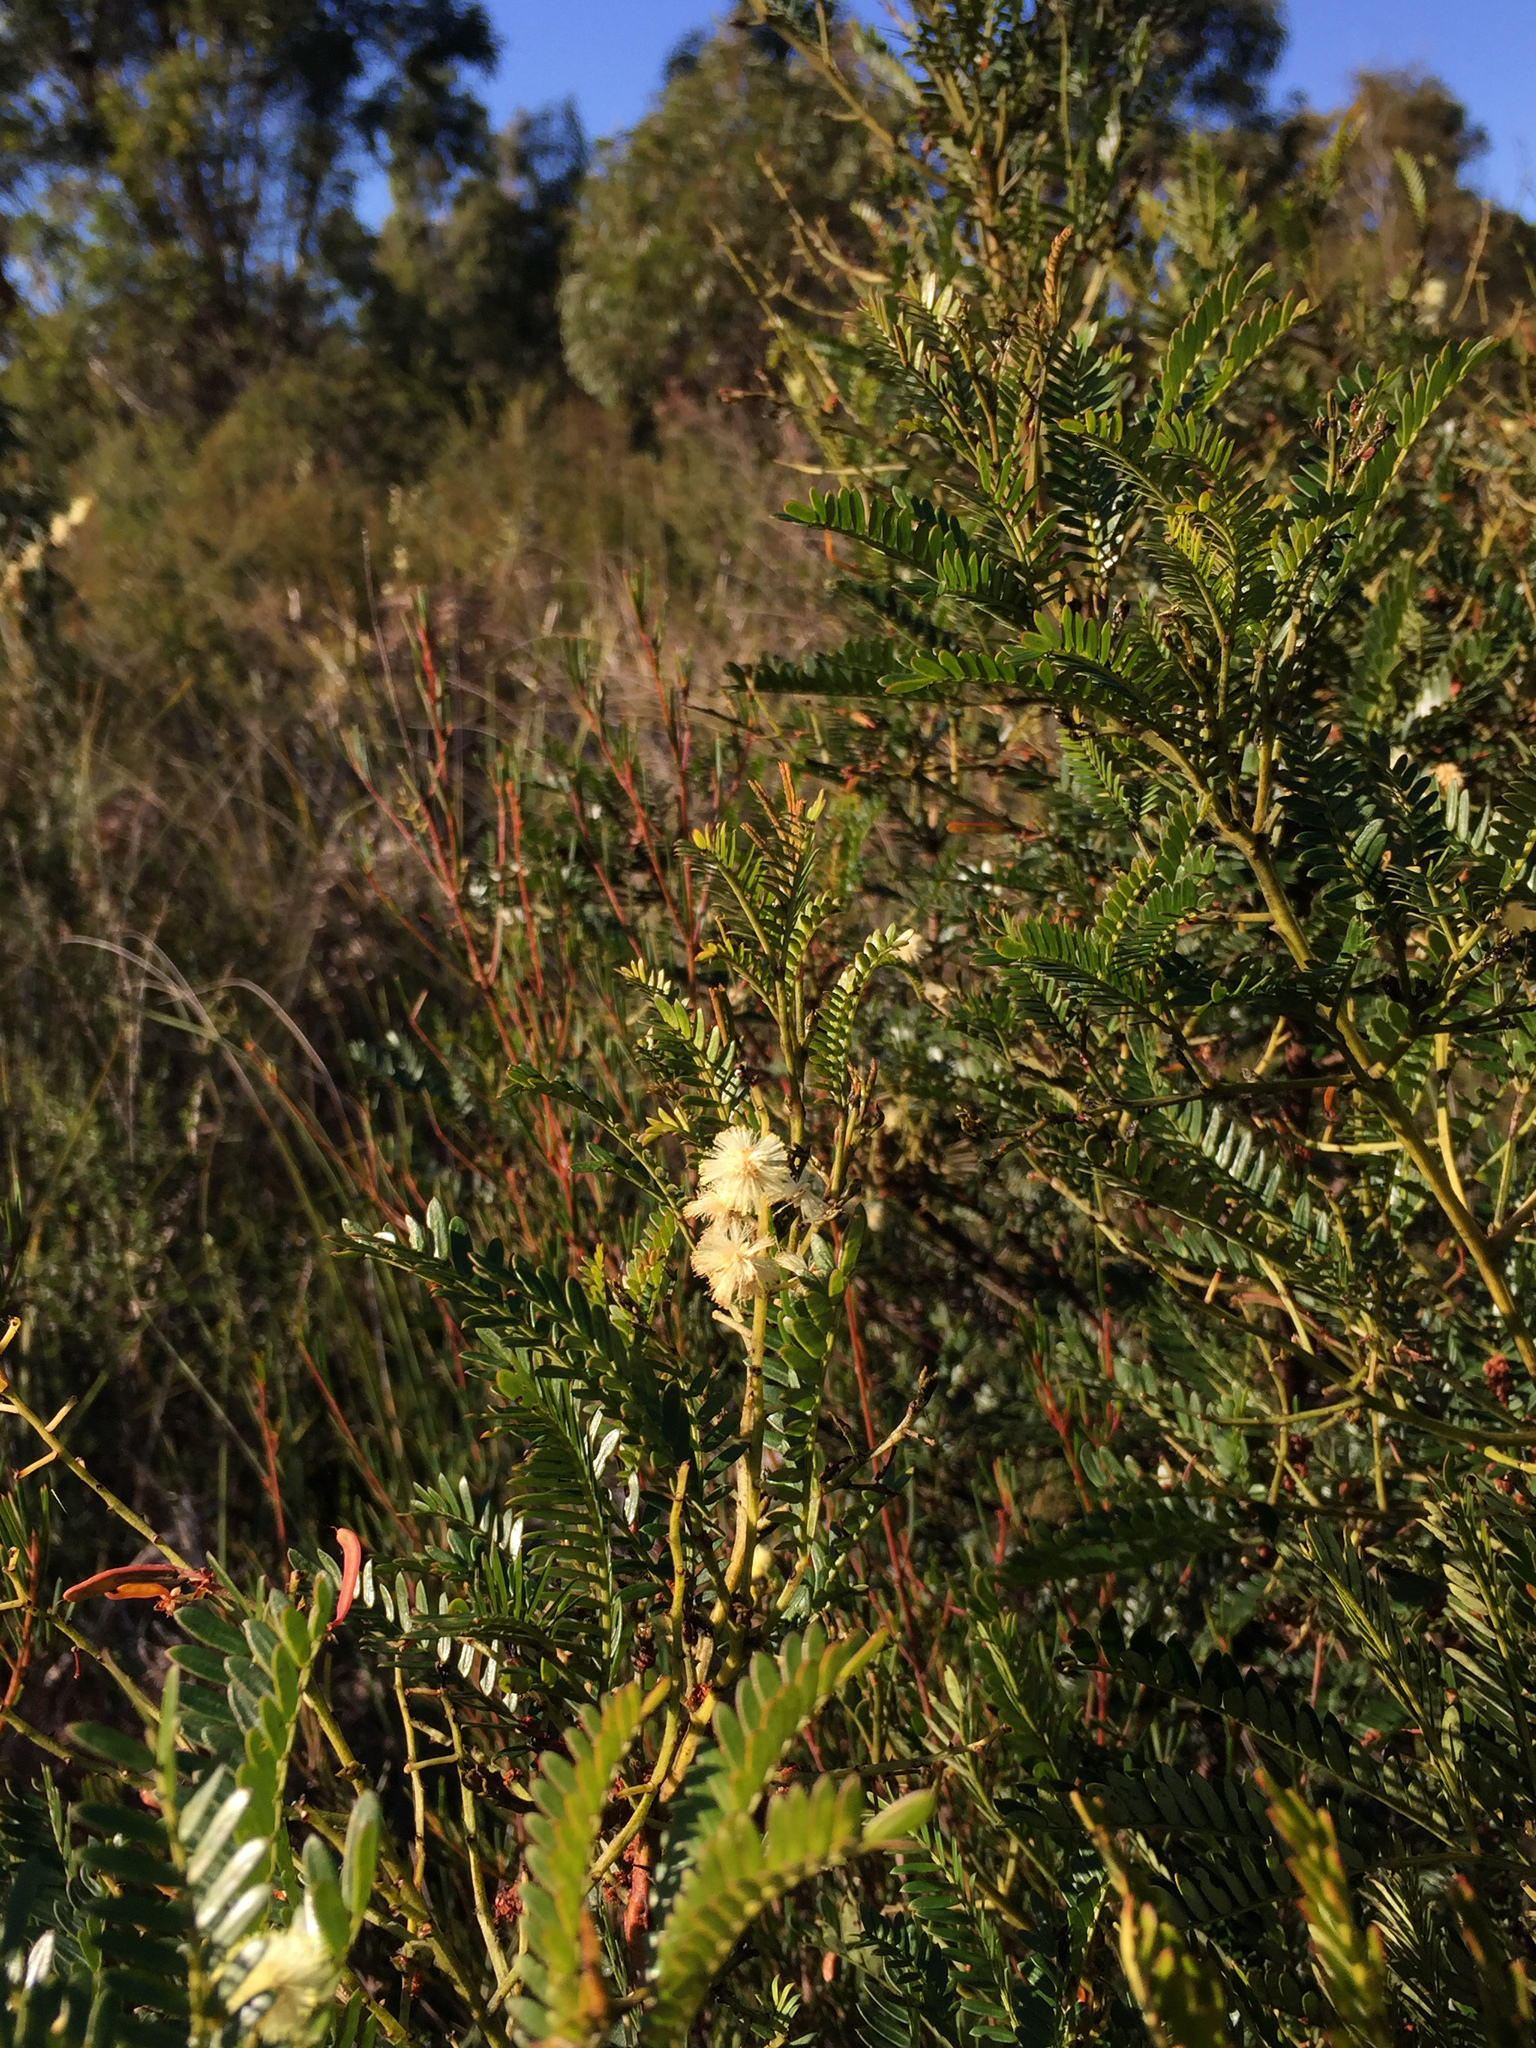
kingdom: Plantae
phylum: Tracheophyta
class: Magnoliopsida
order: Fabales
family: Fabaceae
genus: Acacia
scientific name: Acacia terminalis
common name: Cedar wattle
